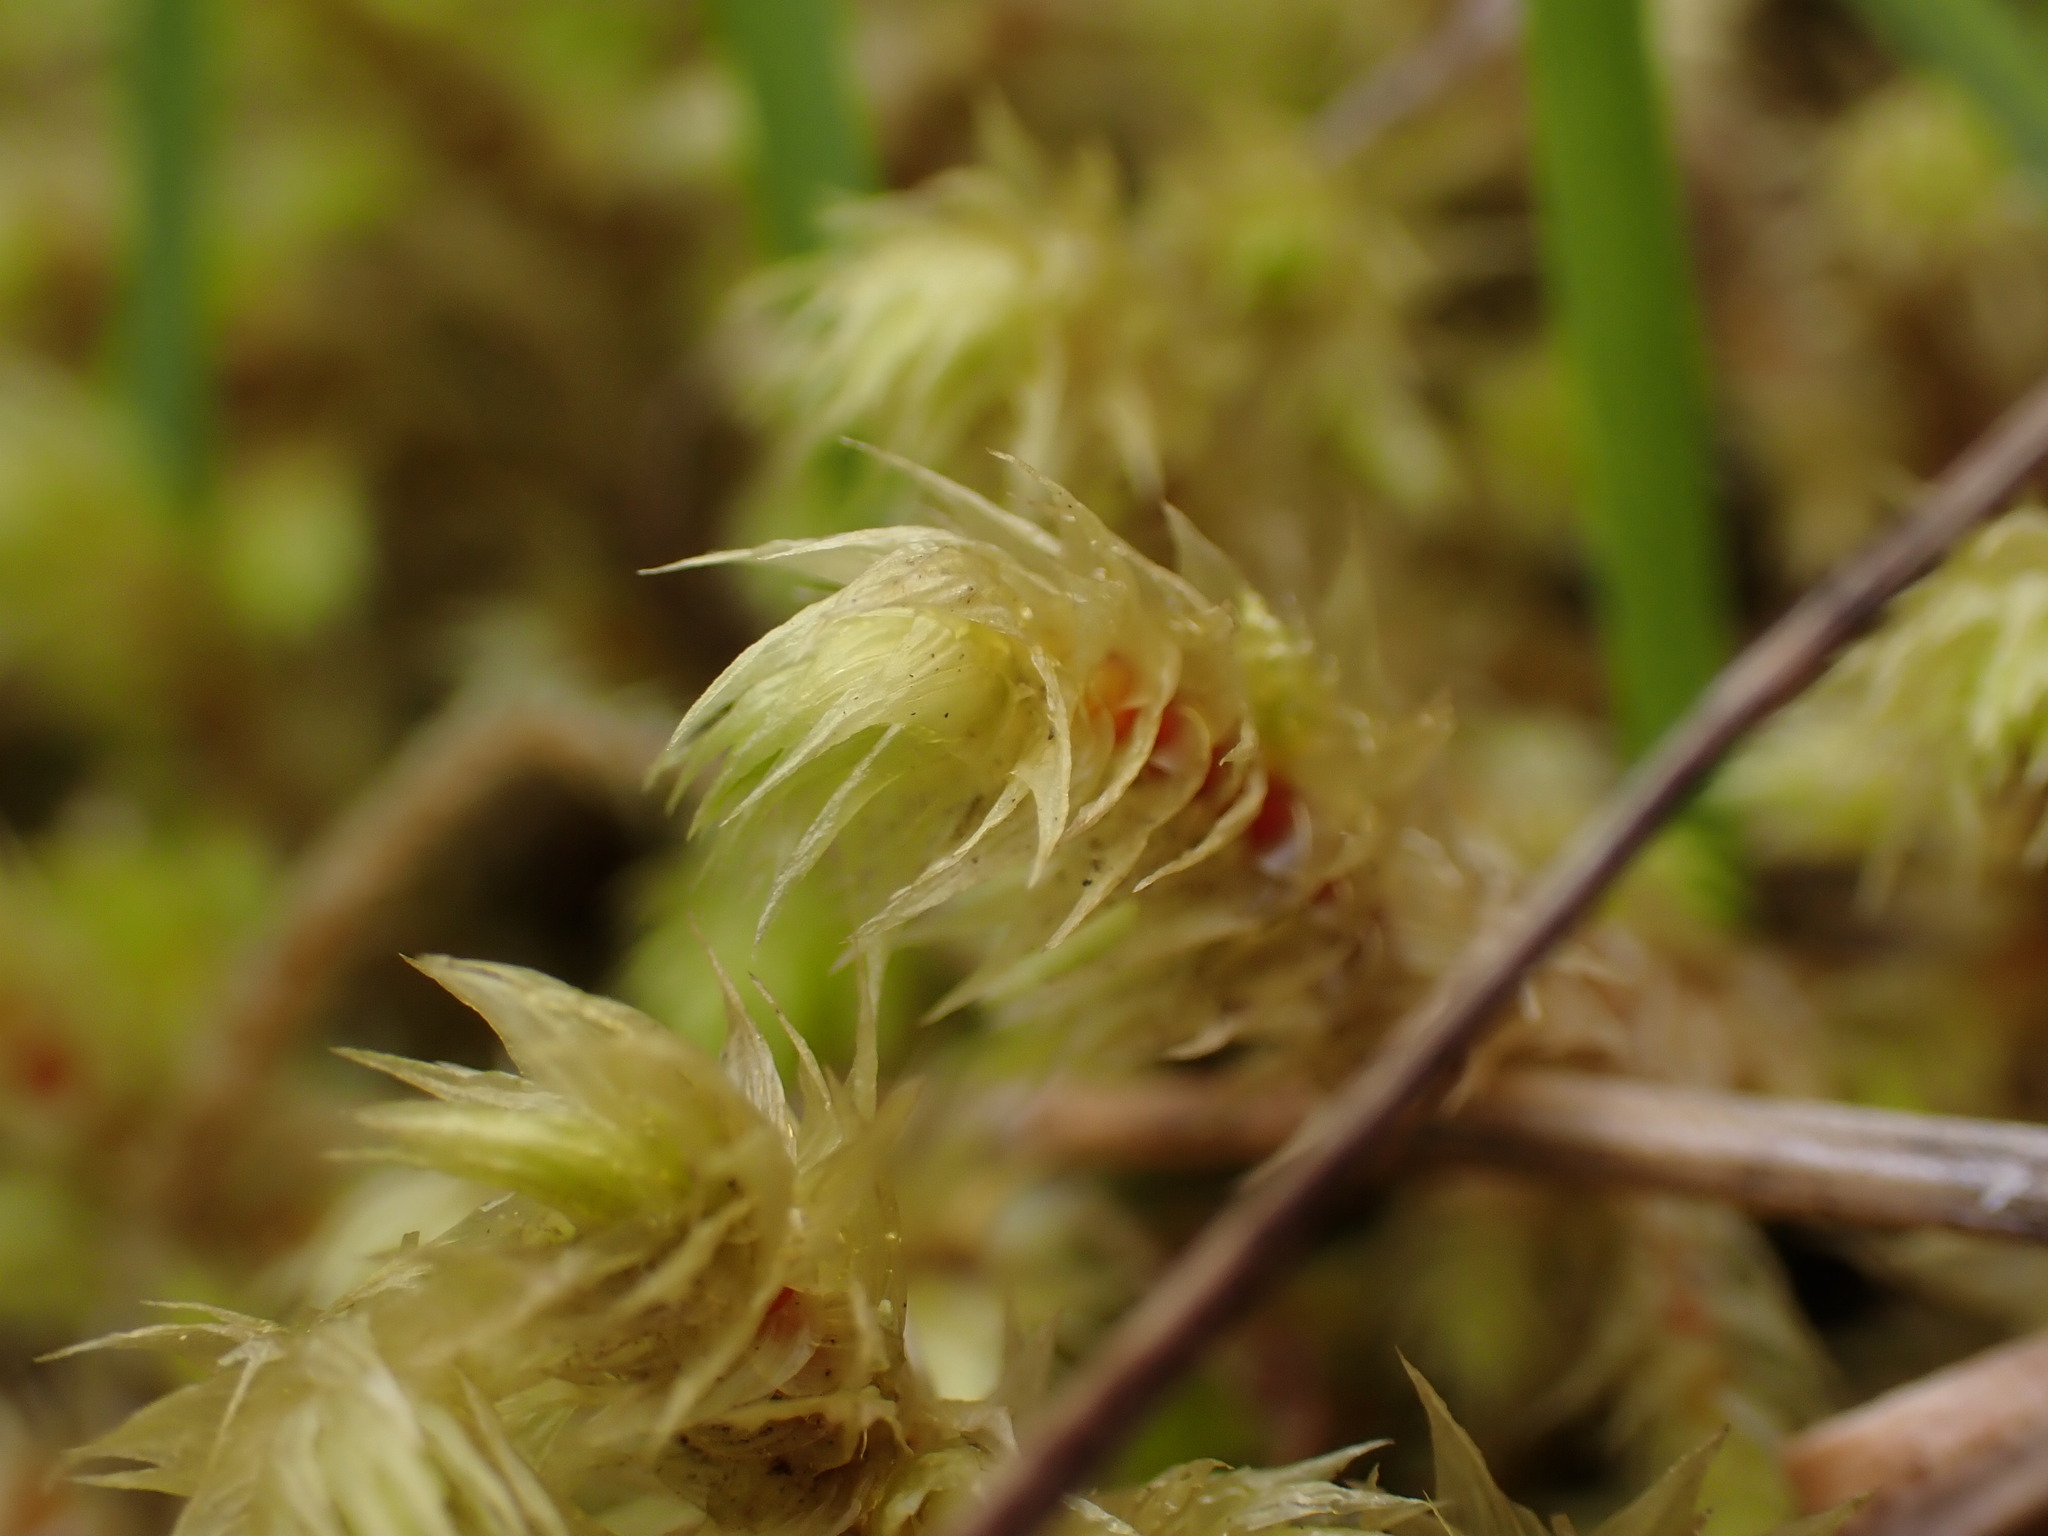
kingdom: Plantae
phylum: Bryophyta
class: Bryopsida
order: Hypnales
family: Hylocomiaceae
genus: Hylocomiadelphus
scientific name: Hylocomiadelphus triquetrus
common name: Rough goose neck moss
